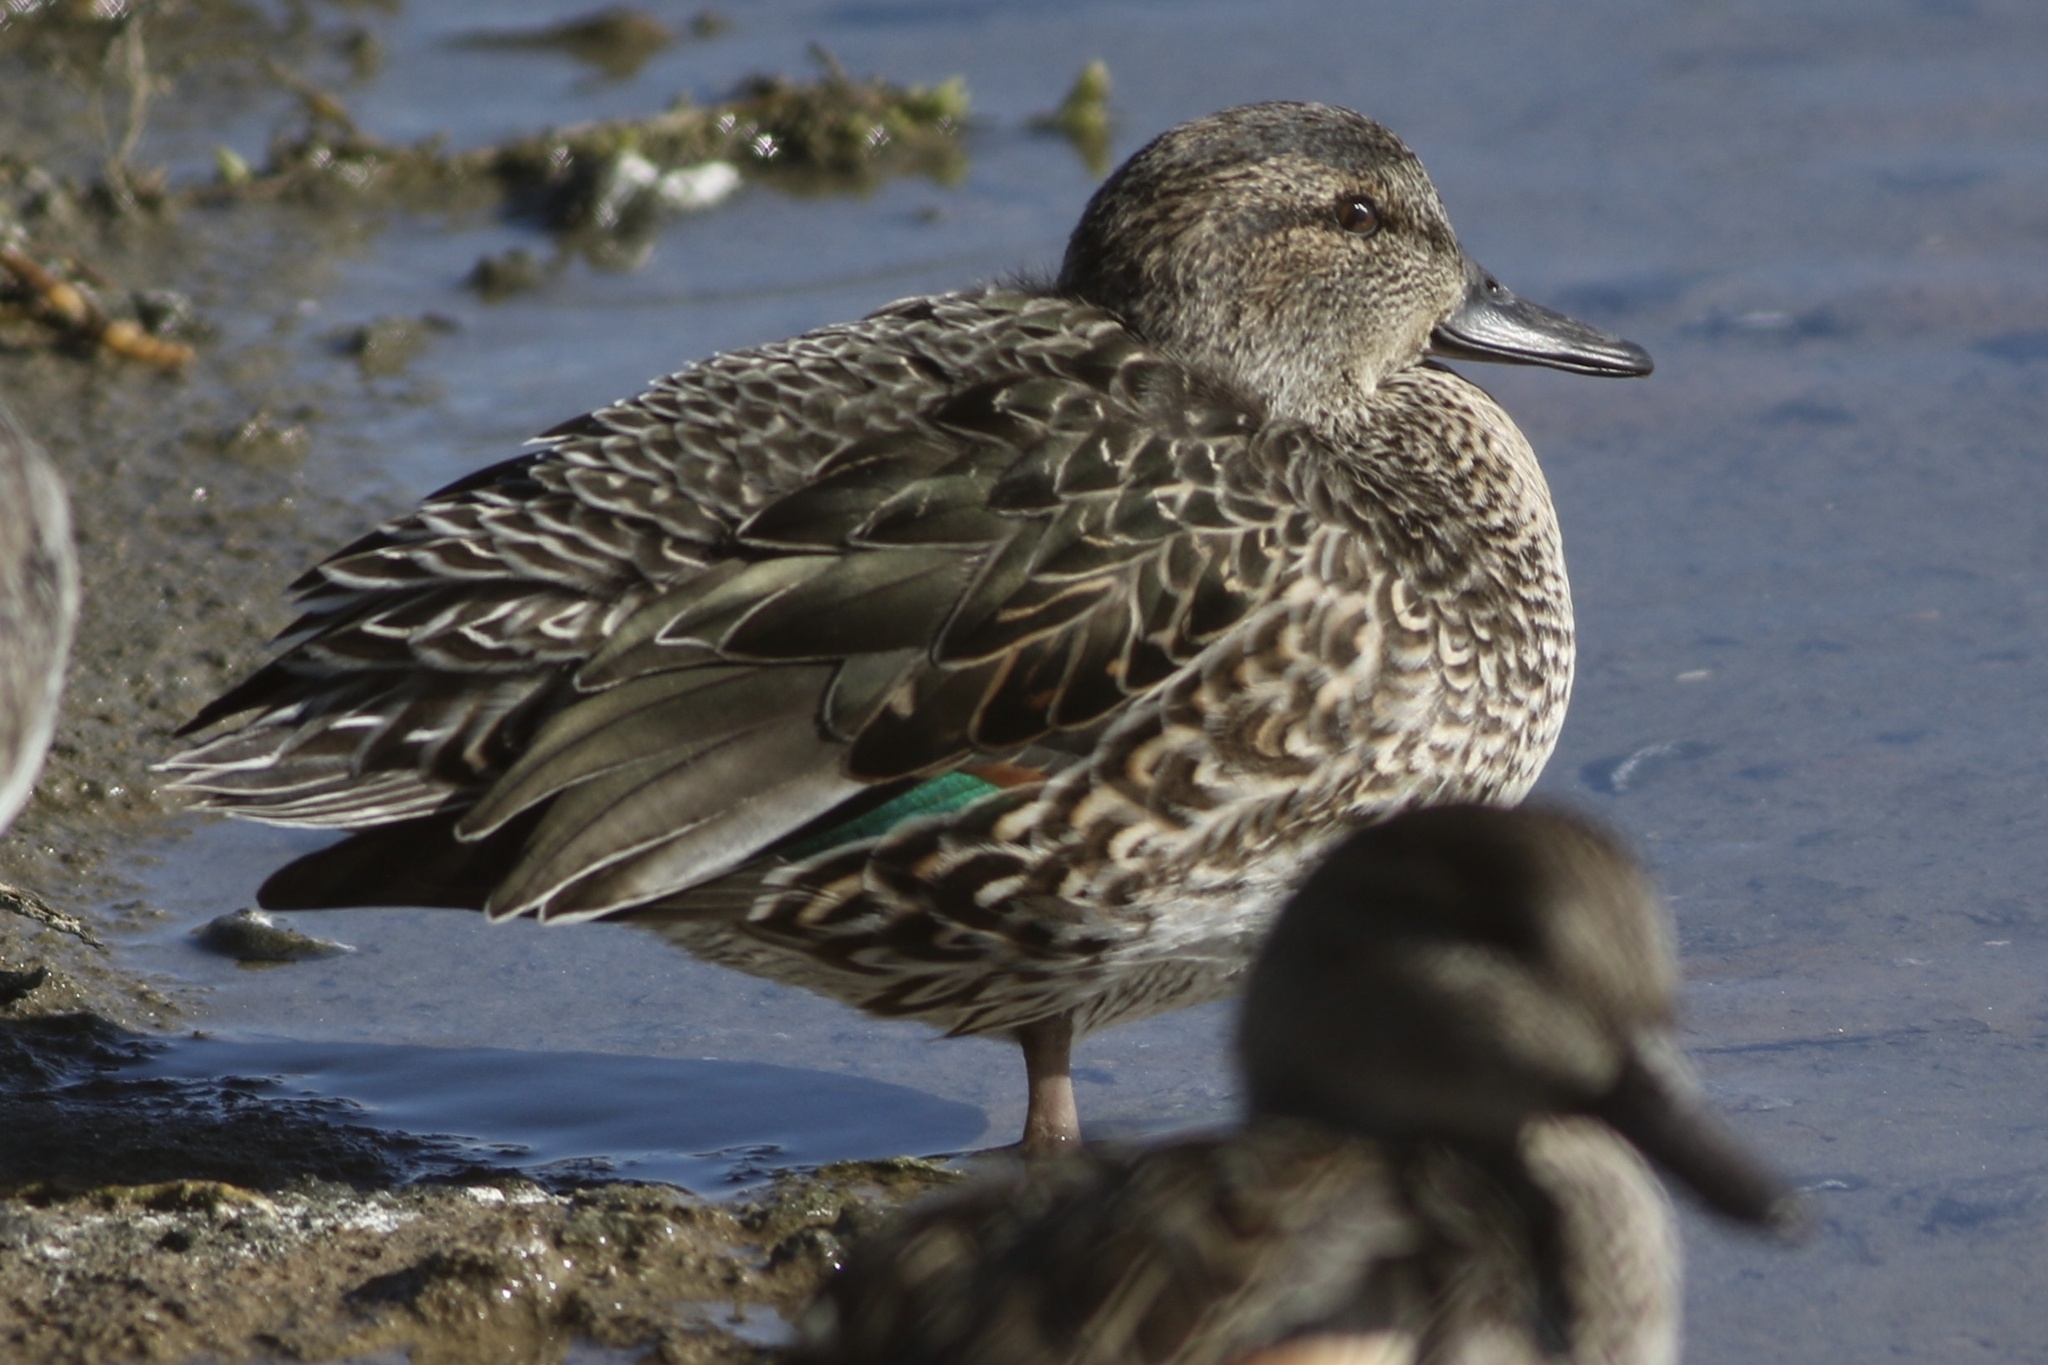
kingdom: Animalia
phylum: Chordata
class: Aves
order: Anseriformes
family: Anatidae
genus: Anas
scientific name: Anas crecca
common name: Eurasian teal
